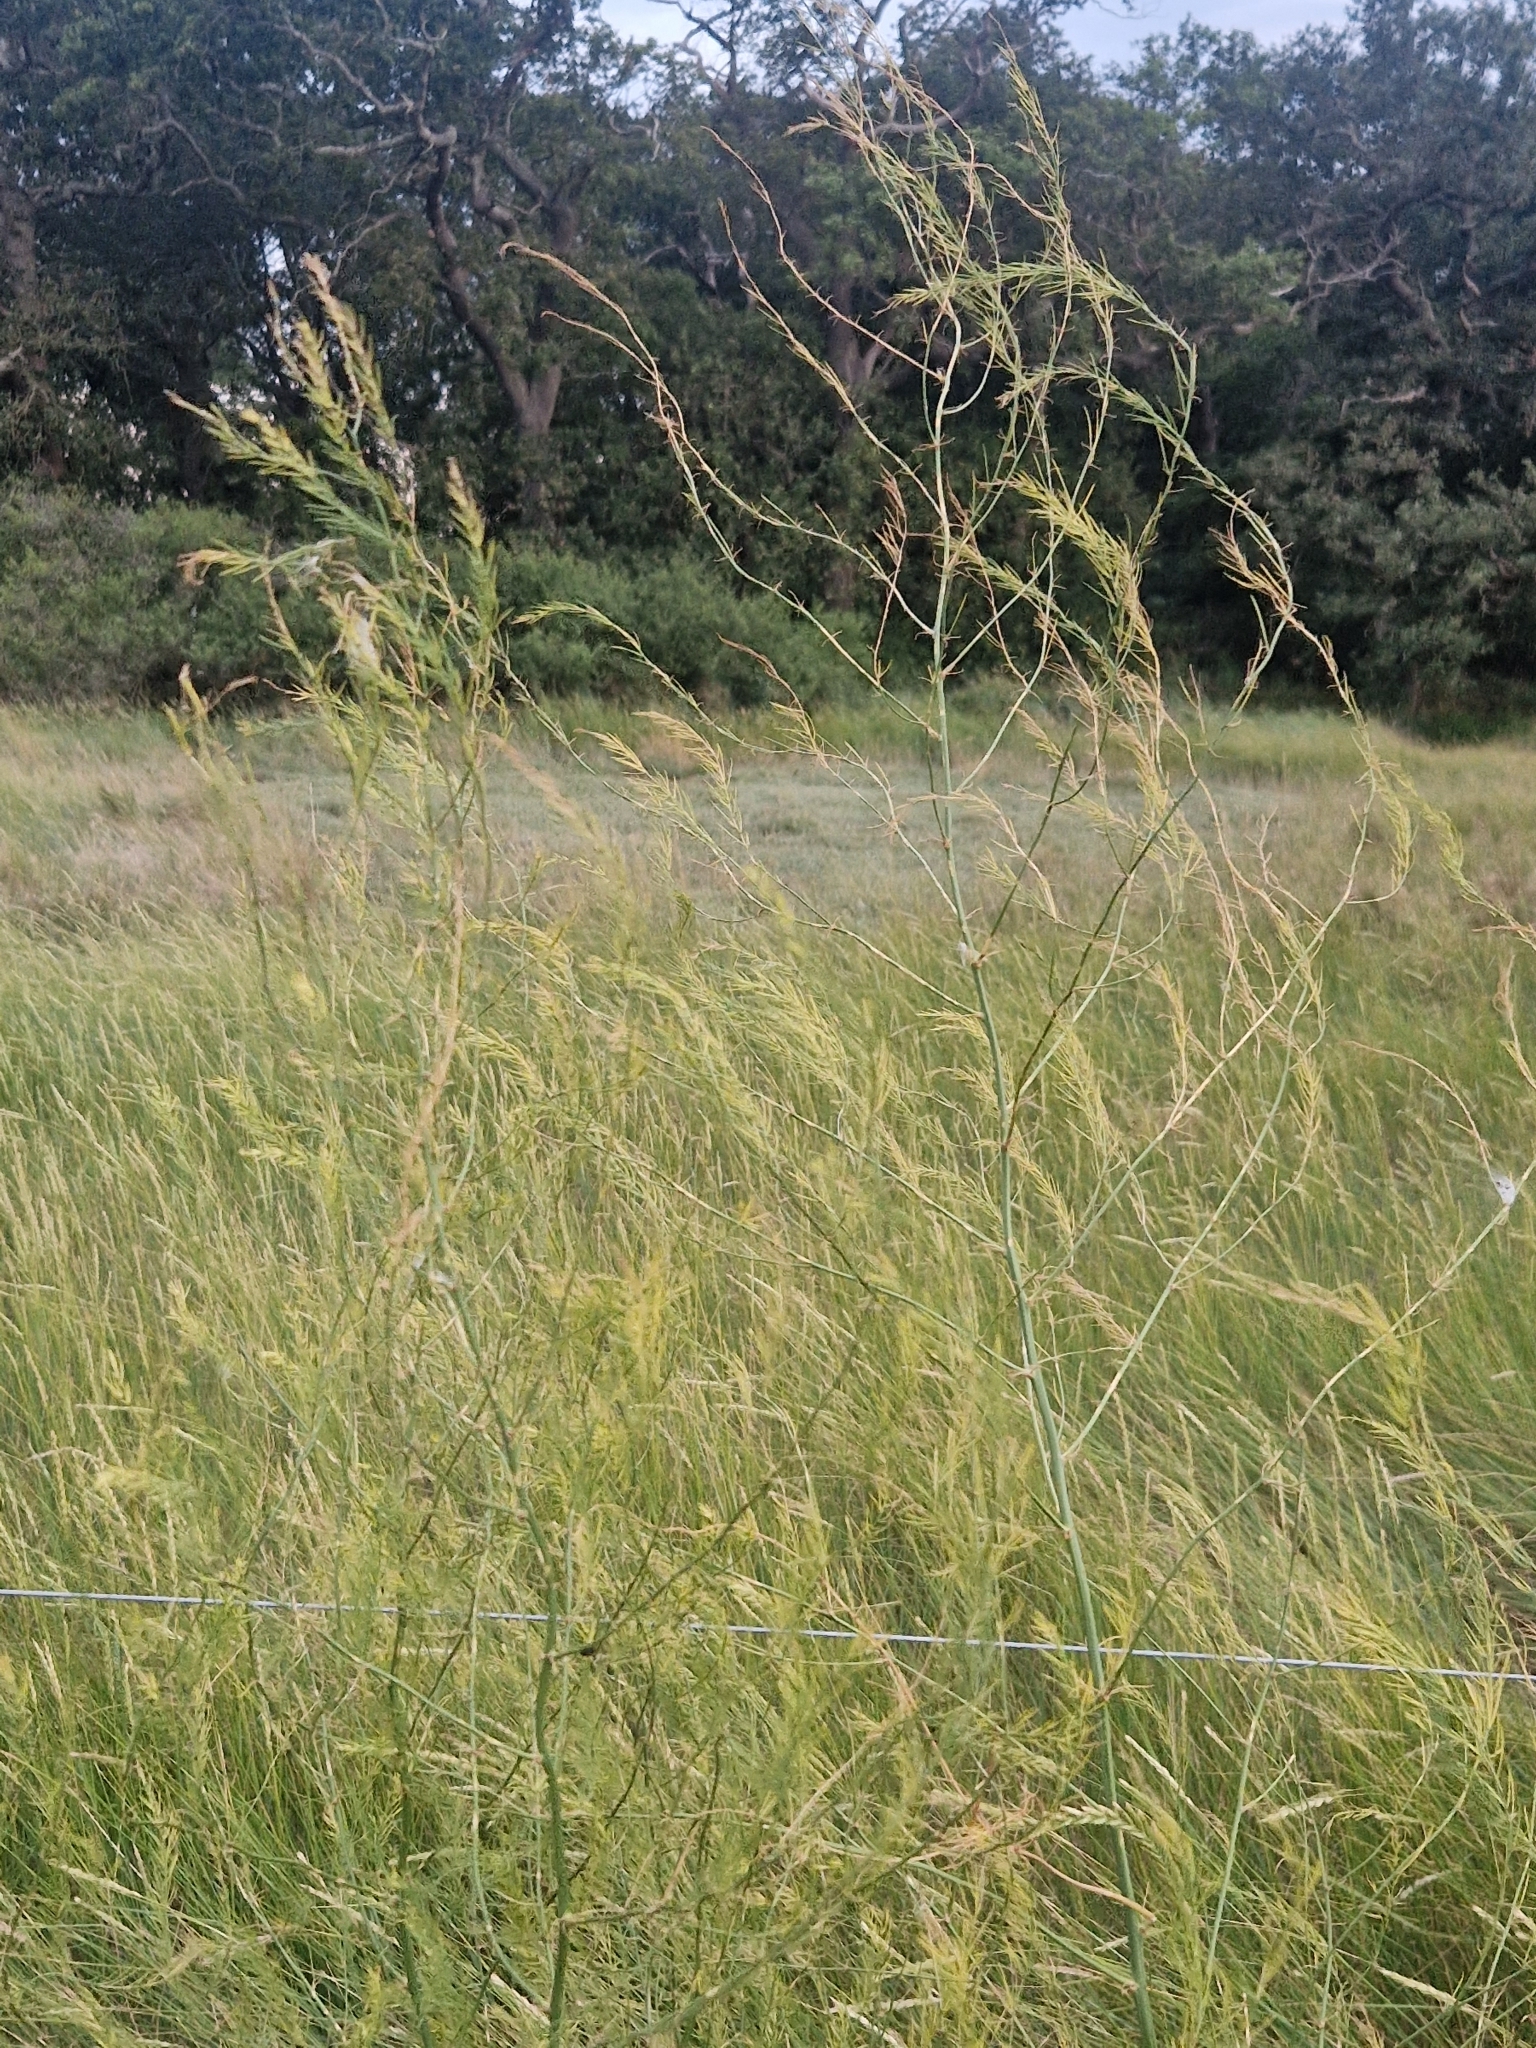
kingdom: Plantae
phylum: Tracheophyta
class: Liliopsida
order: Asparagales
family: Asparagaceae
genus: Asparagus
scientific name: Asparagus officinalis
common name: Garden asparagus
